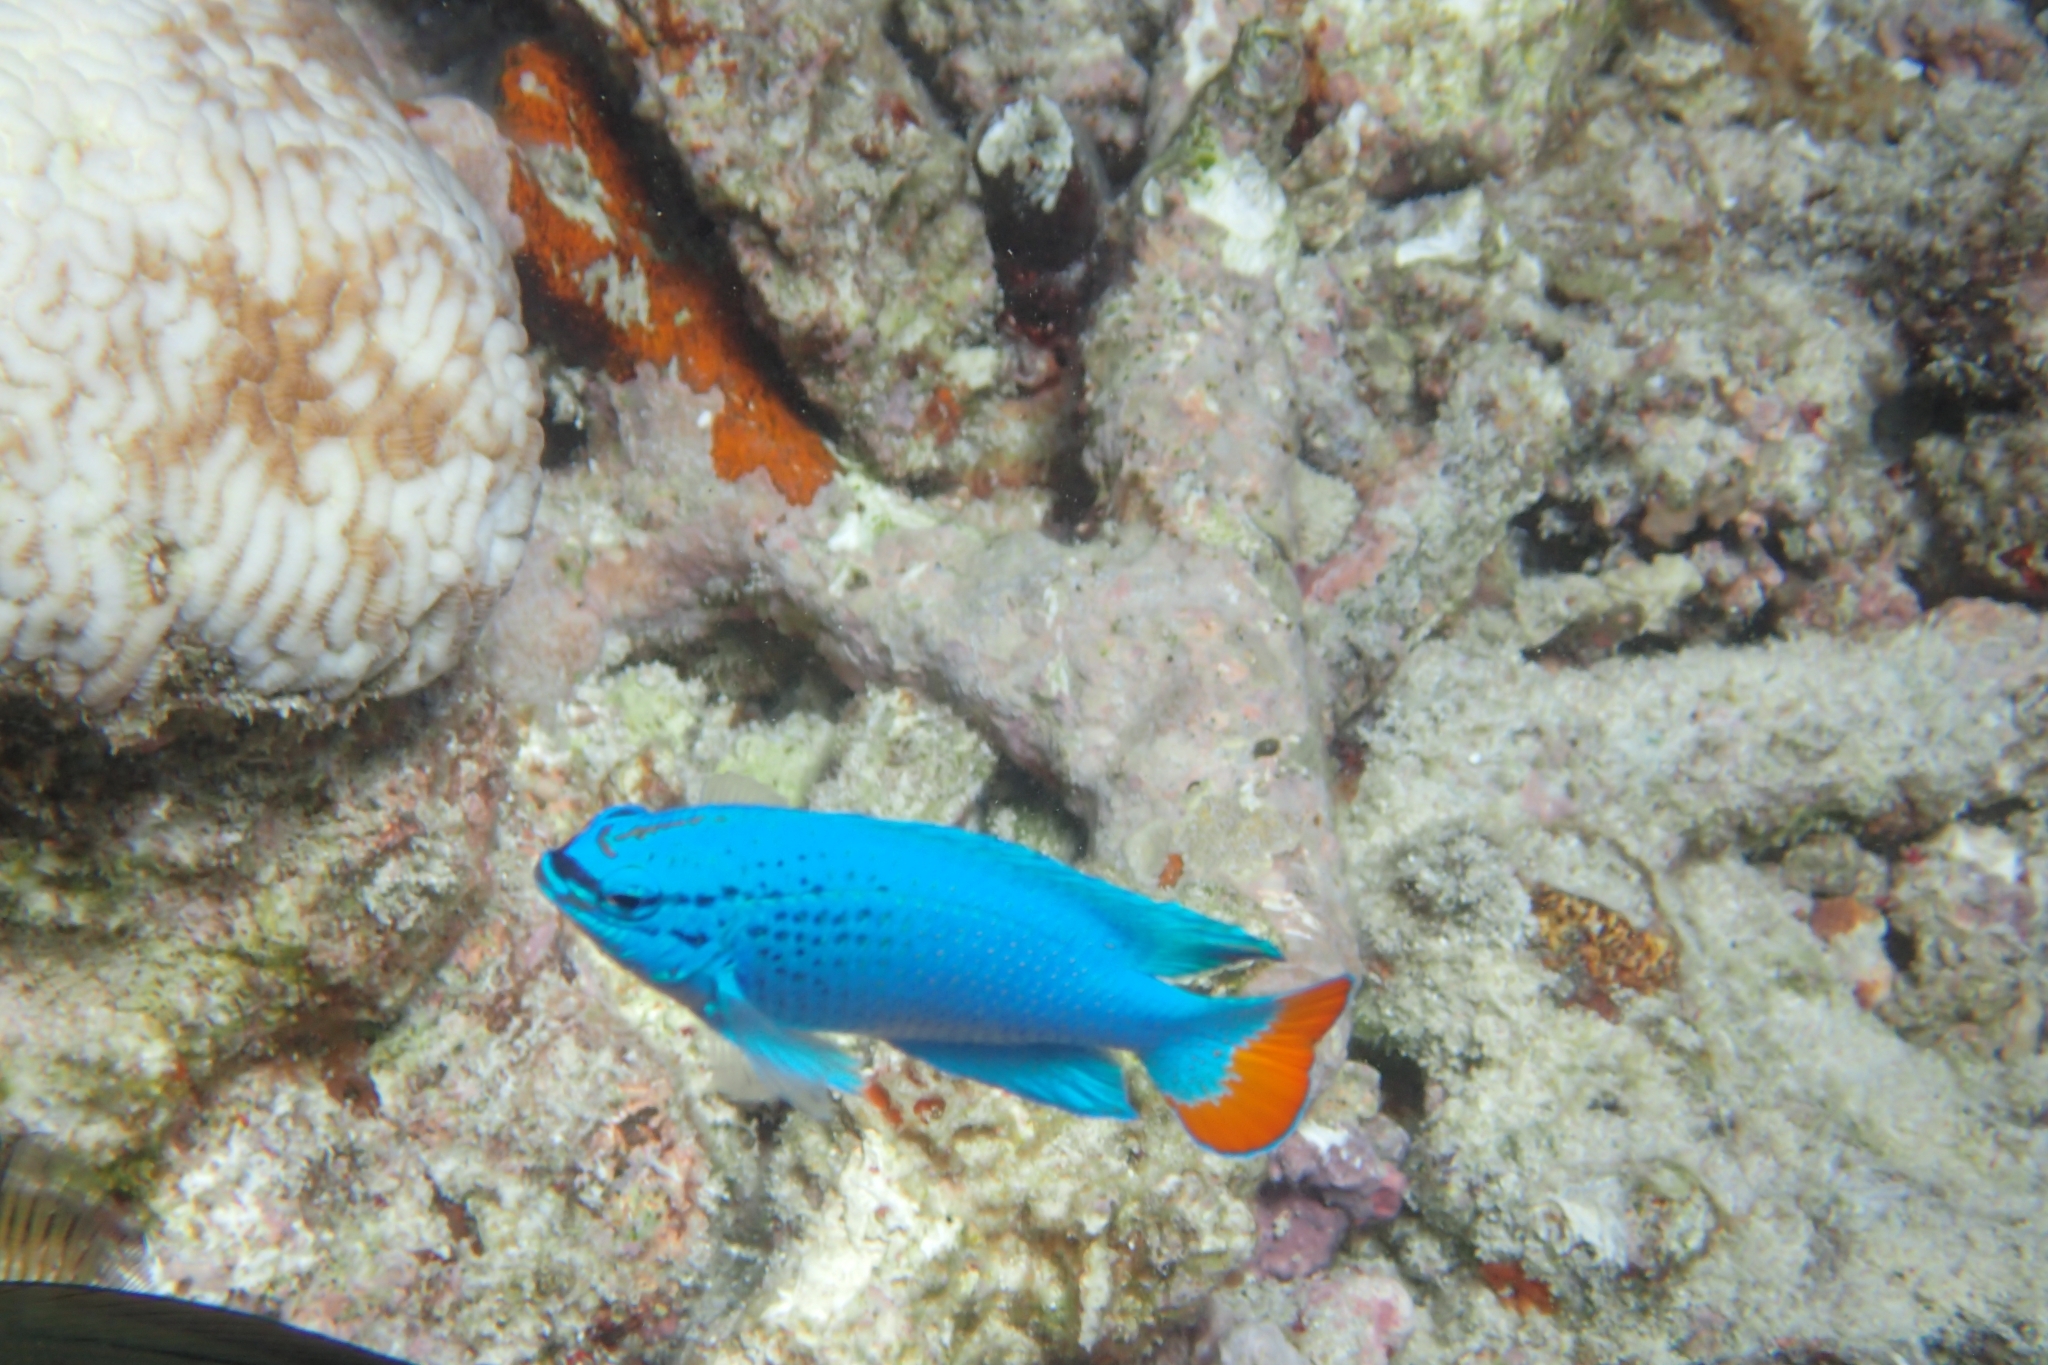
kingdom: Animalia
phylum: Chordata
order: Perciformes
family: Pomacentridae
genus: Chrysiptera
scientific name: Chrysiptera cyanea
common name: Blue devil
